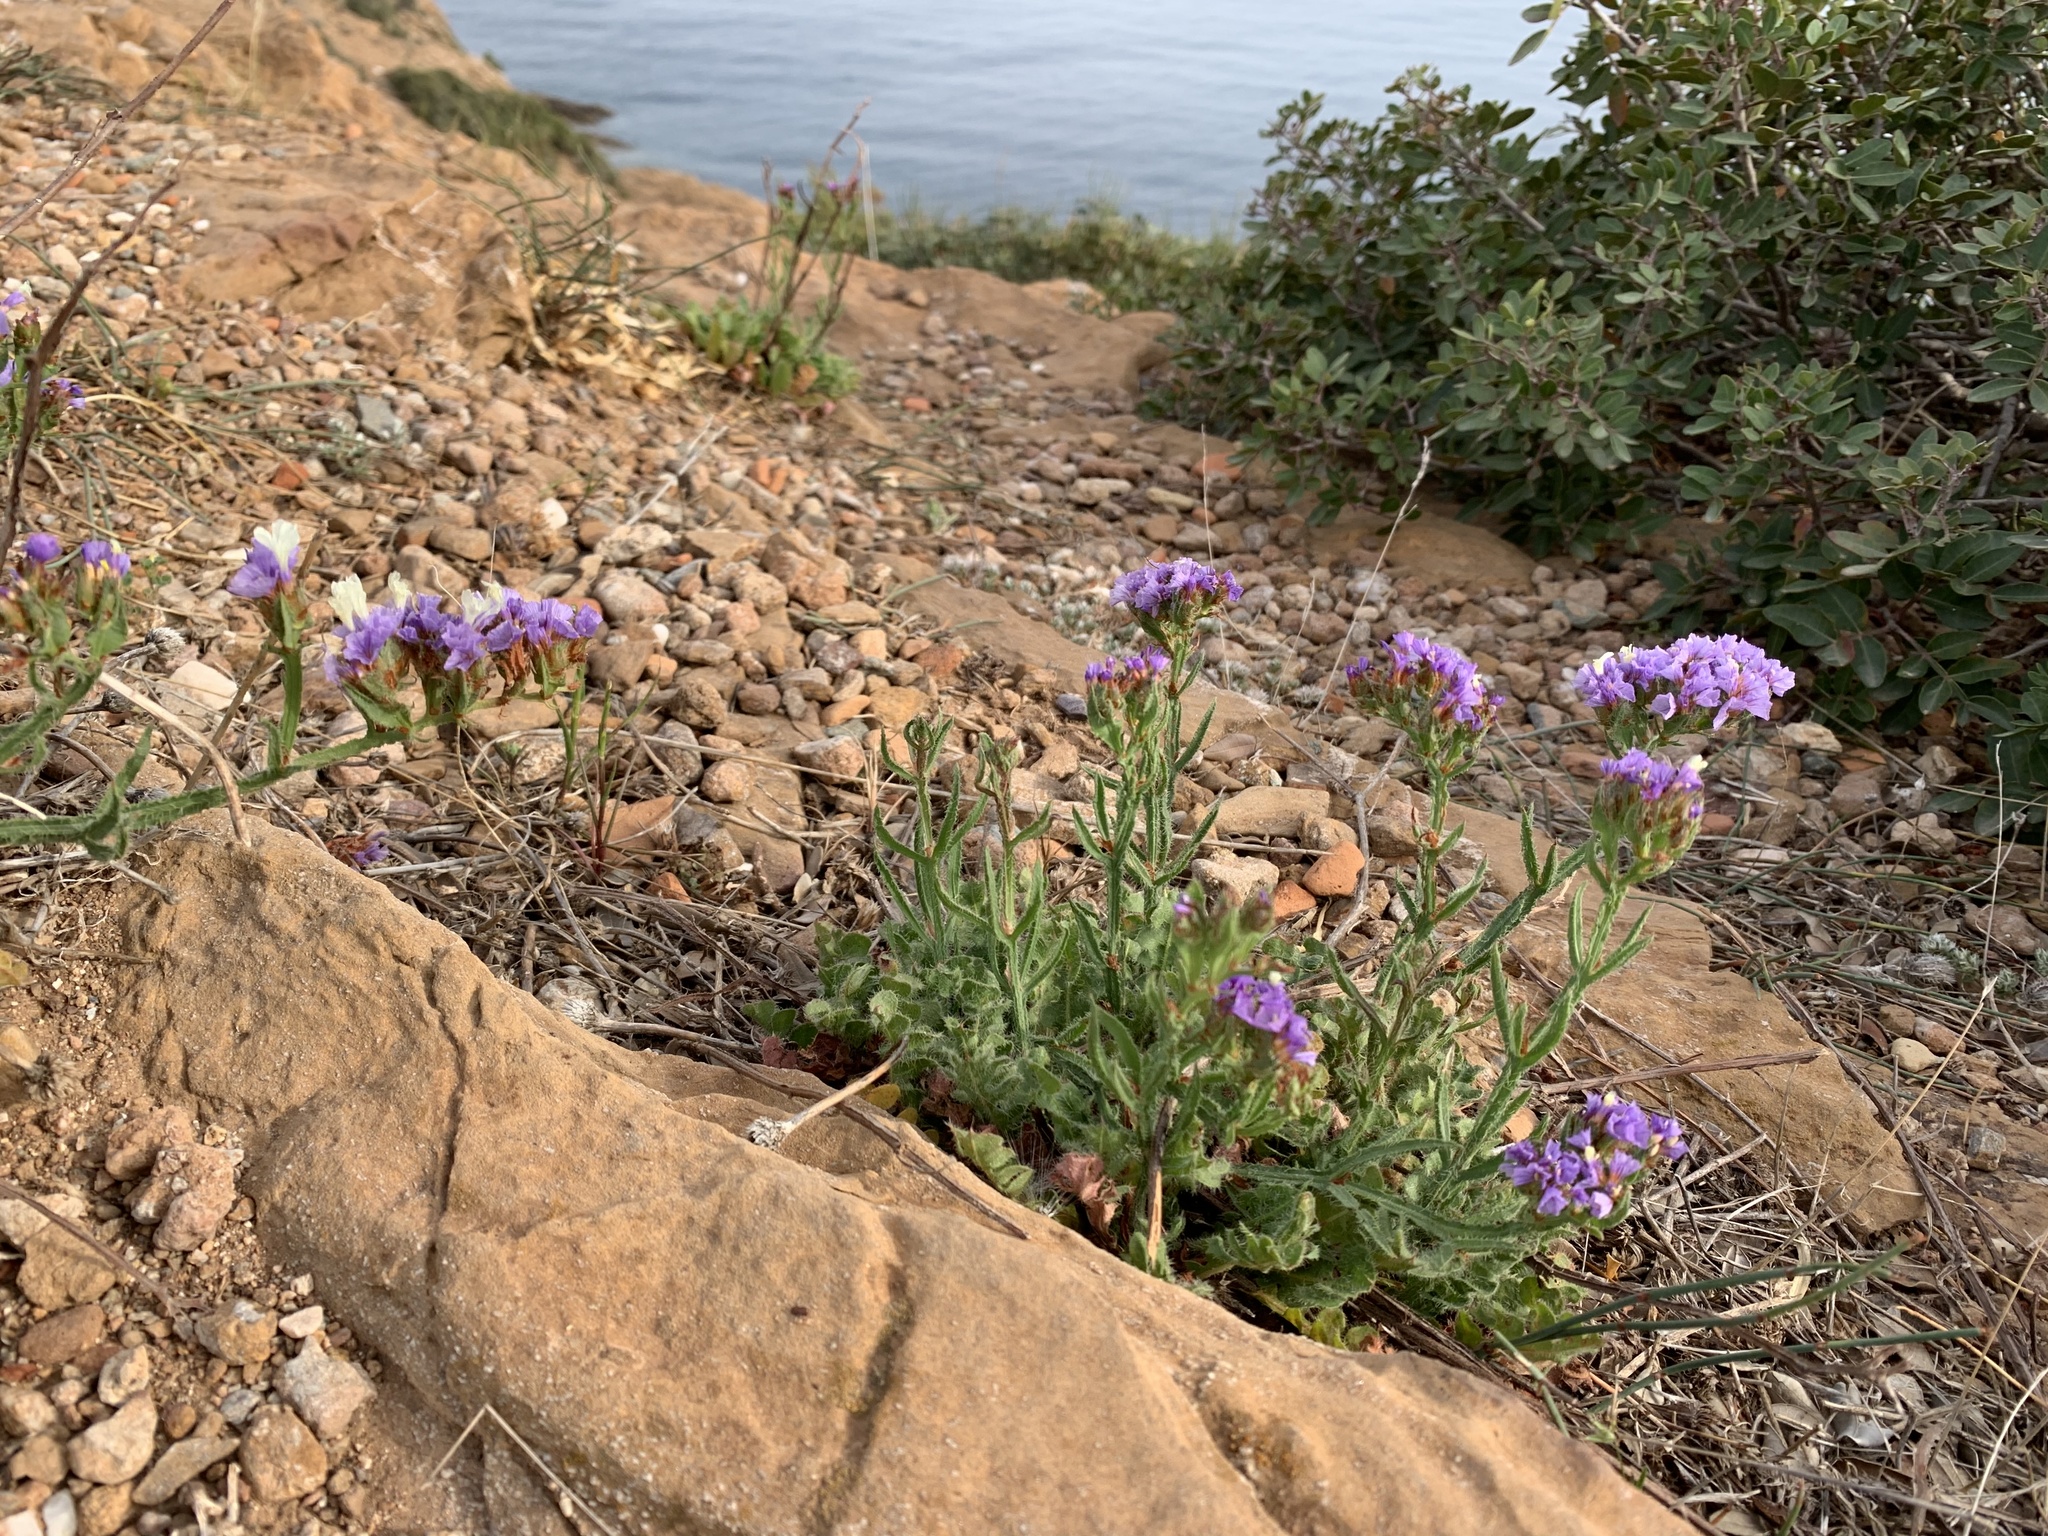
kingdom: Plantae
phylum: Tracheophyta
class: Magnoliopsida
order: Caryophyllales
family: Plumbaginaceae
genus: Limonium
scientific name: Limonium sinuatum
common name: Statice
